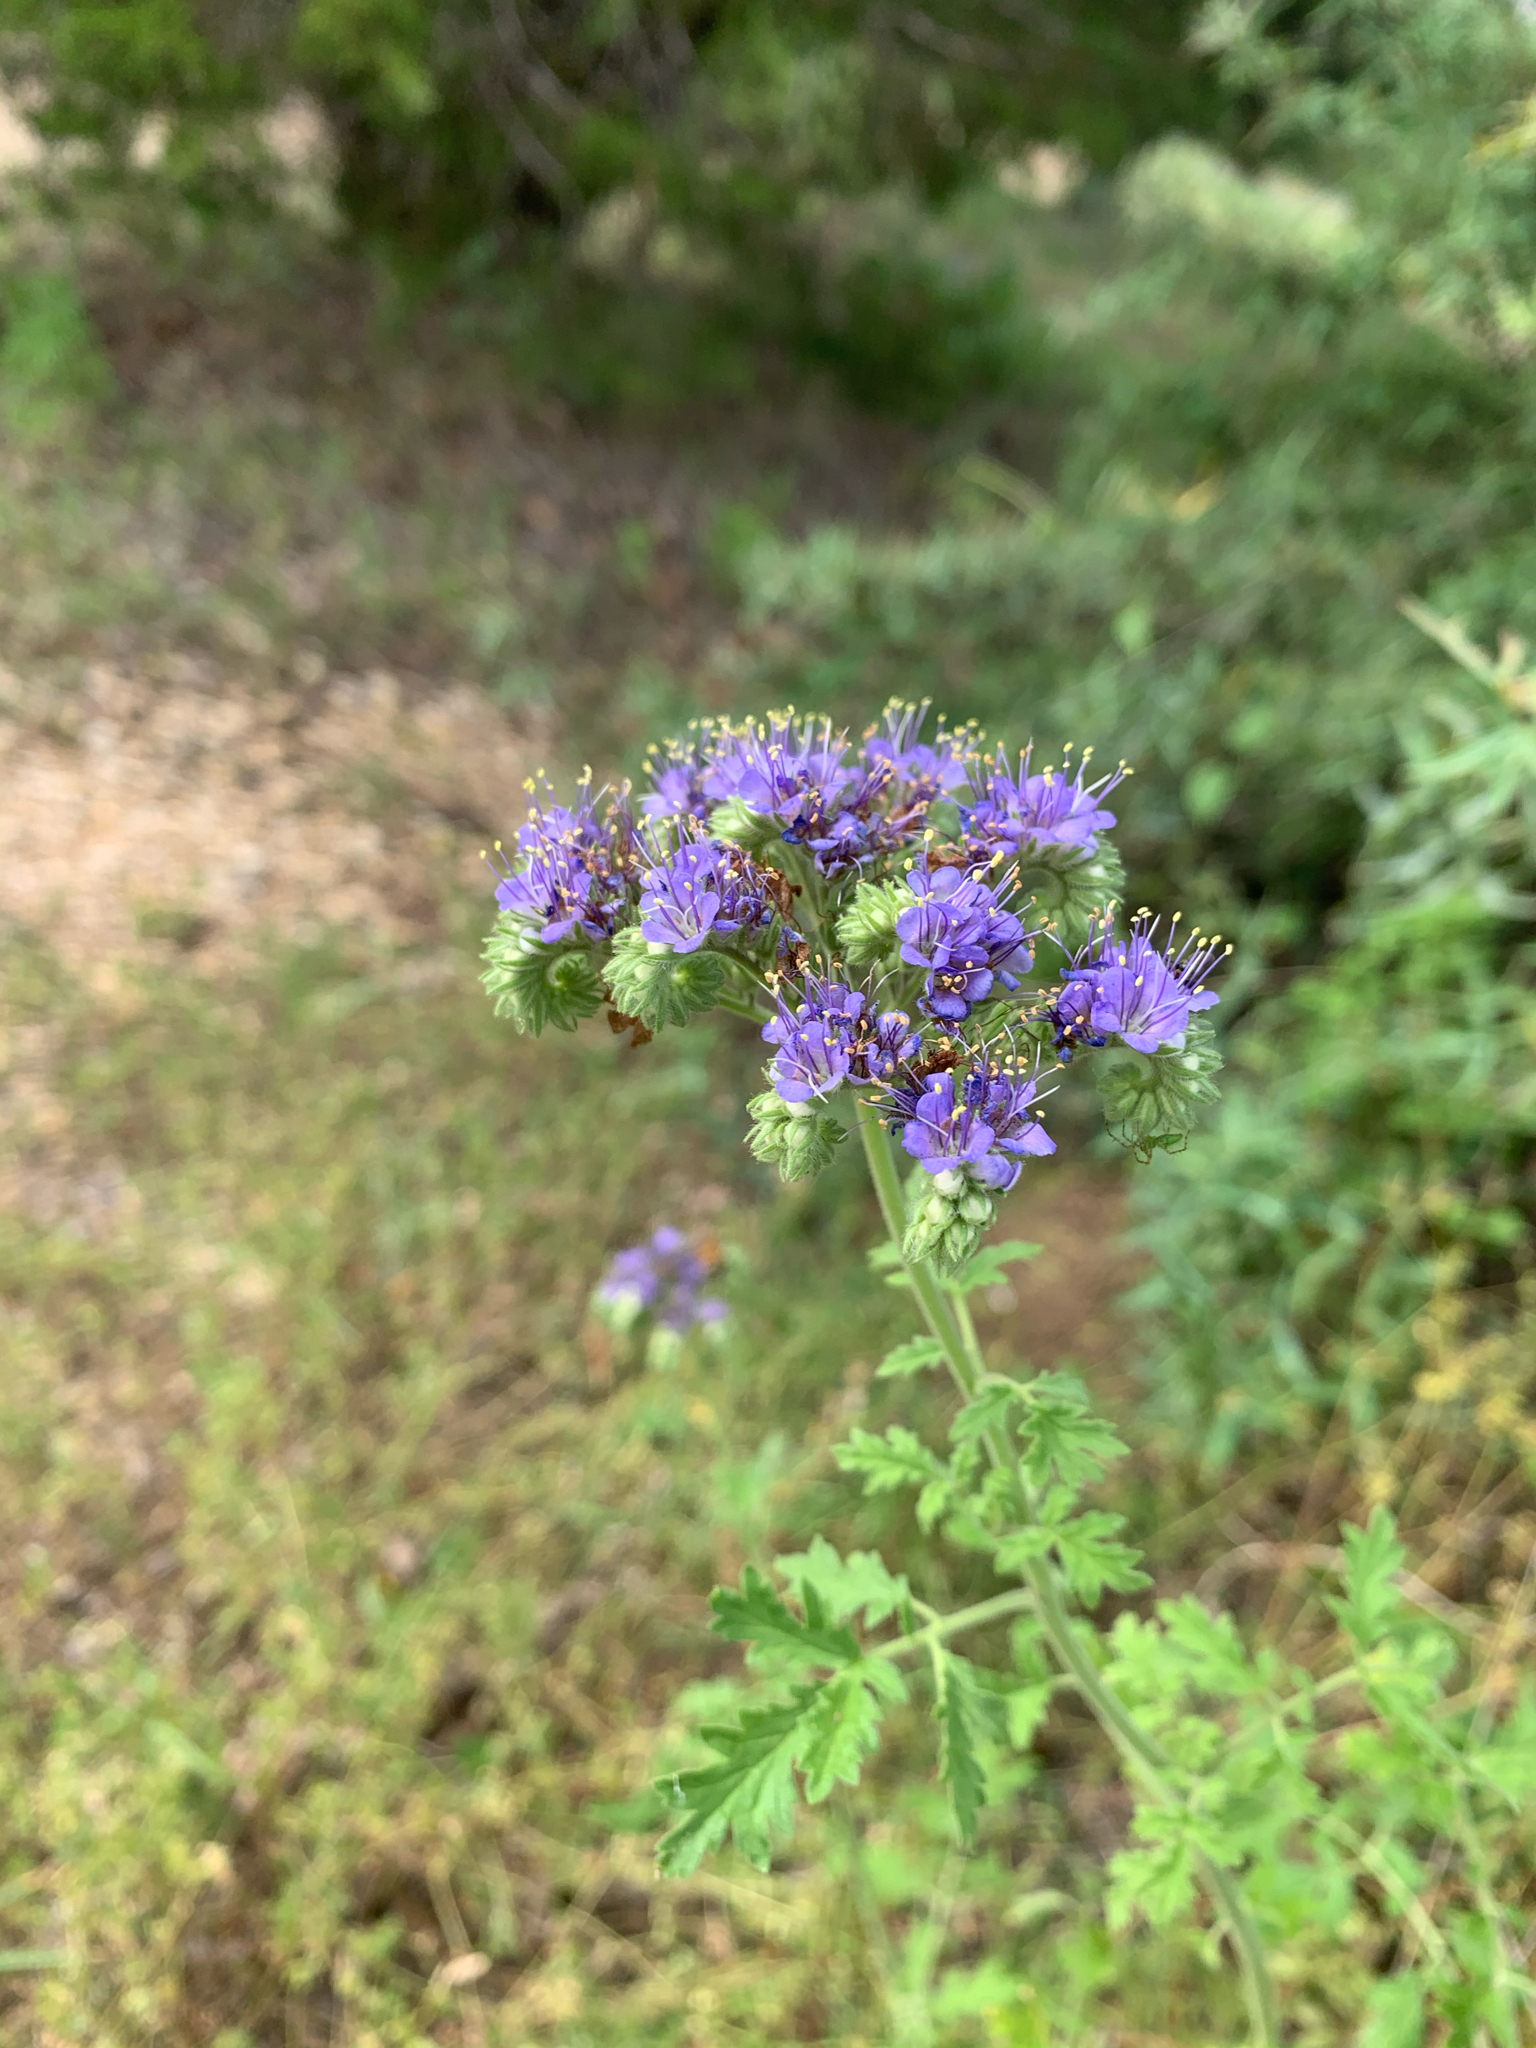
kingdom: Plantae
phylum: Tracheophyta
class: Magnoliopsida
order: Boraginales
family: Hydrophyllaceae
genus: Phacelia
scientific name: Phacelia congesta
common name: Blue curls
